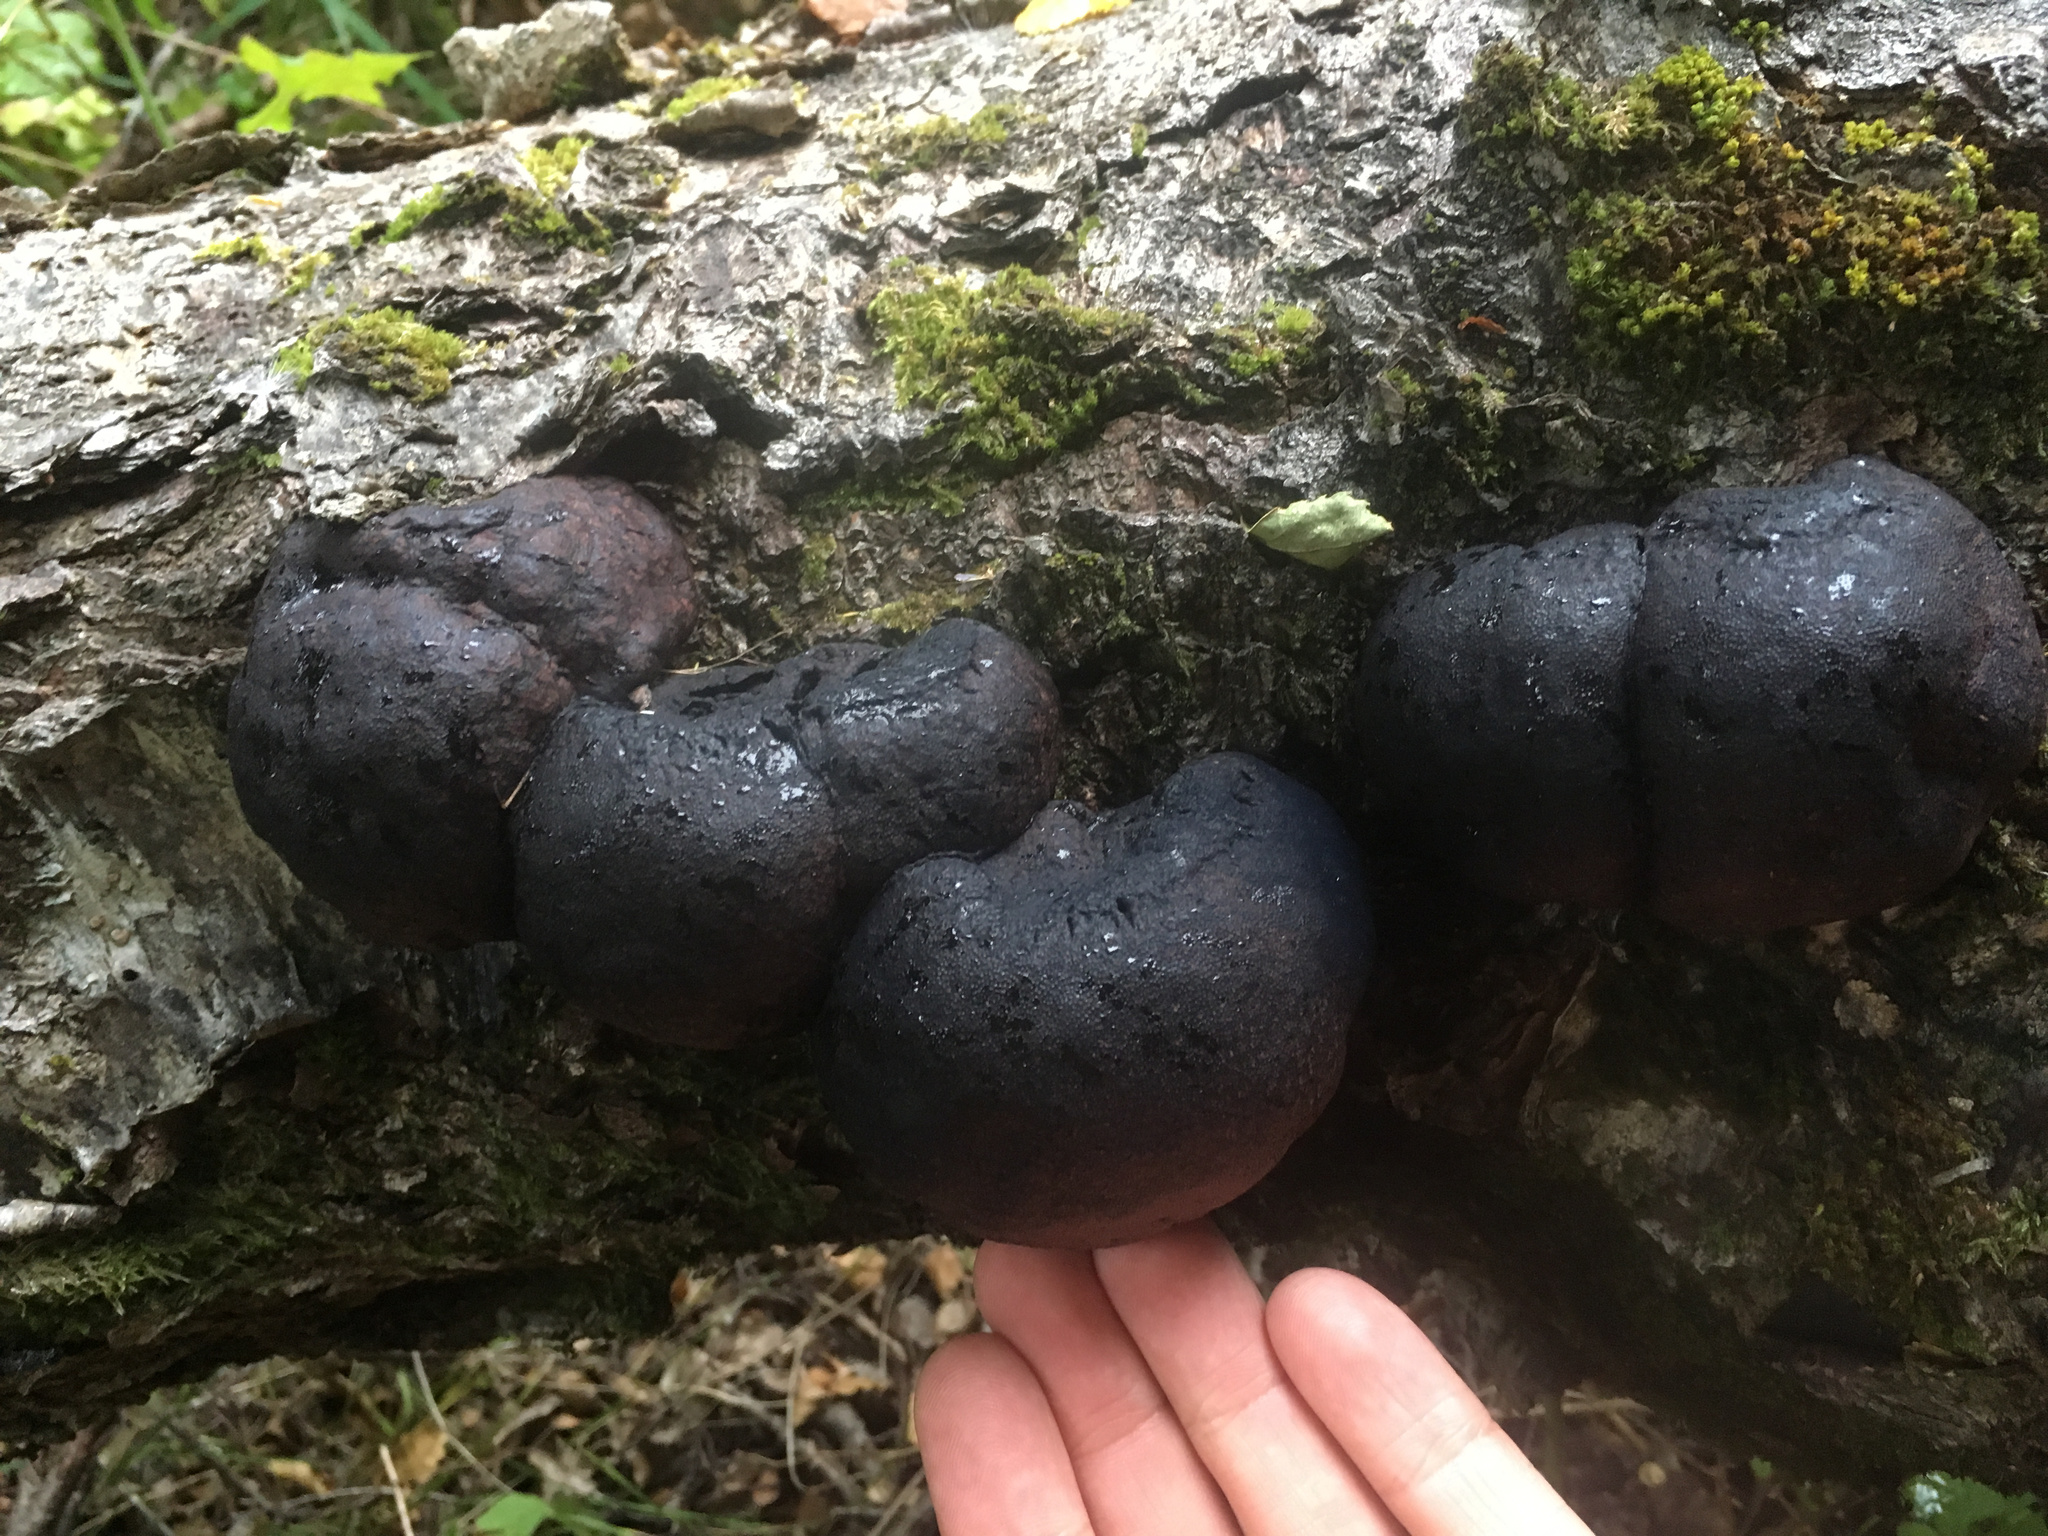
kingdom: Fungi
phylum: Ascomycota
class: Sordariomycetes
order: Xylariales
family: Hypoxylaceae
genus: Daldinia
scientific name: Daldinia
